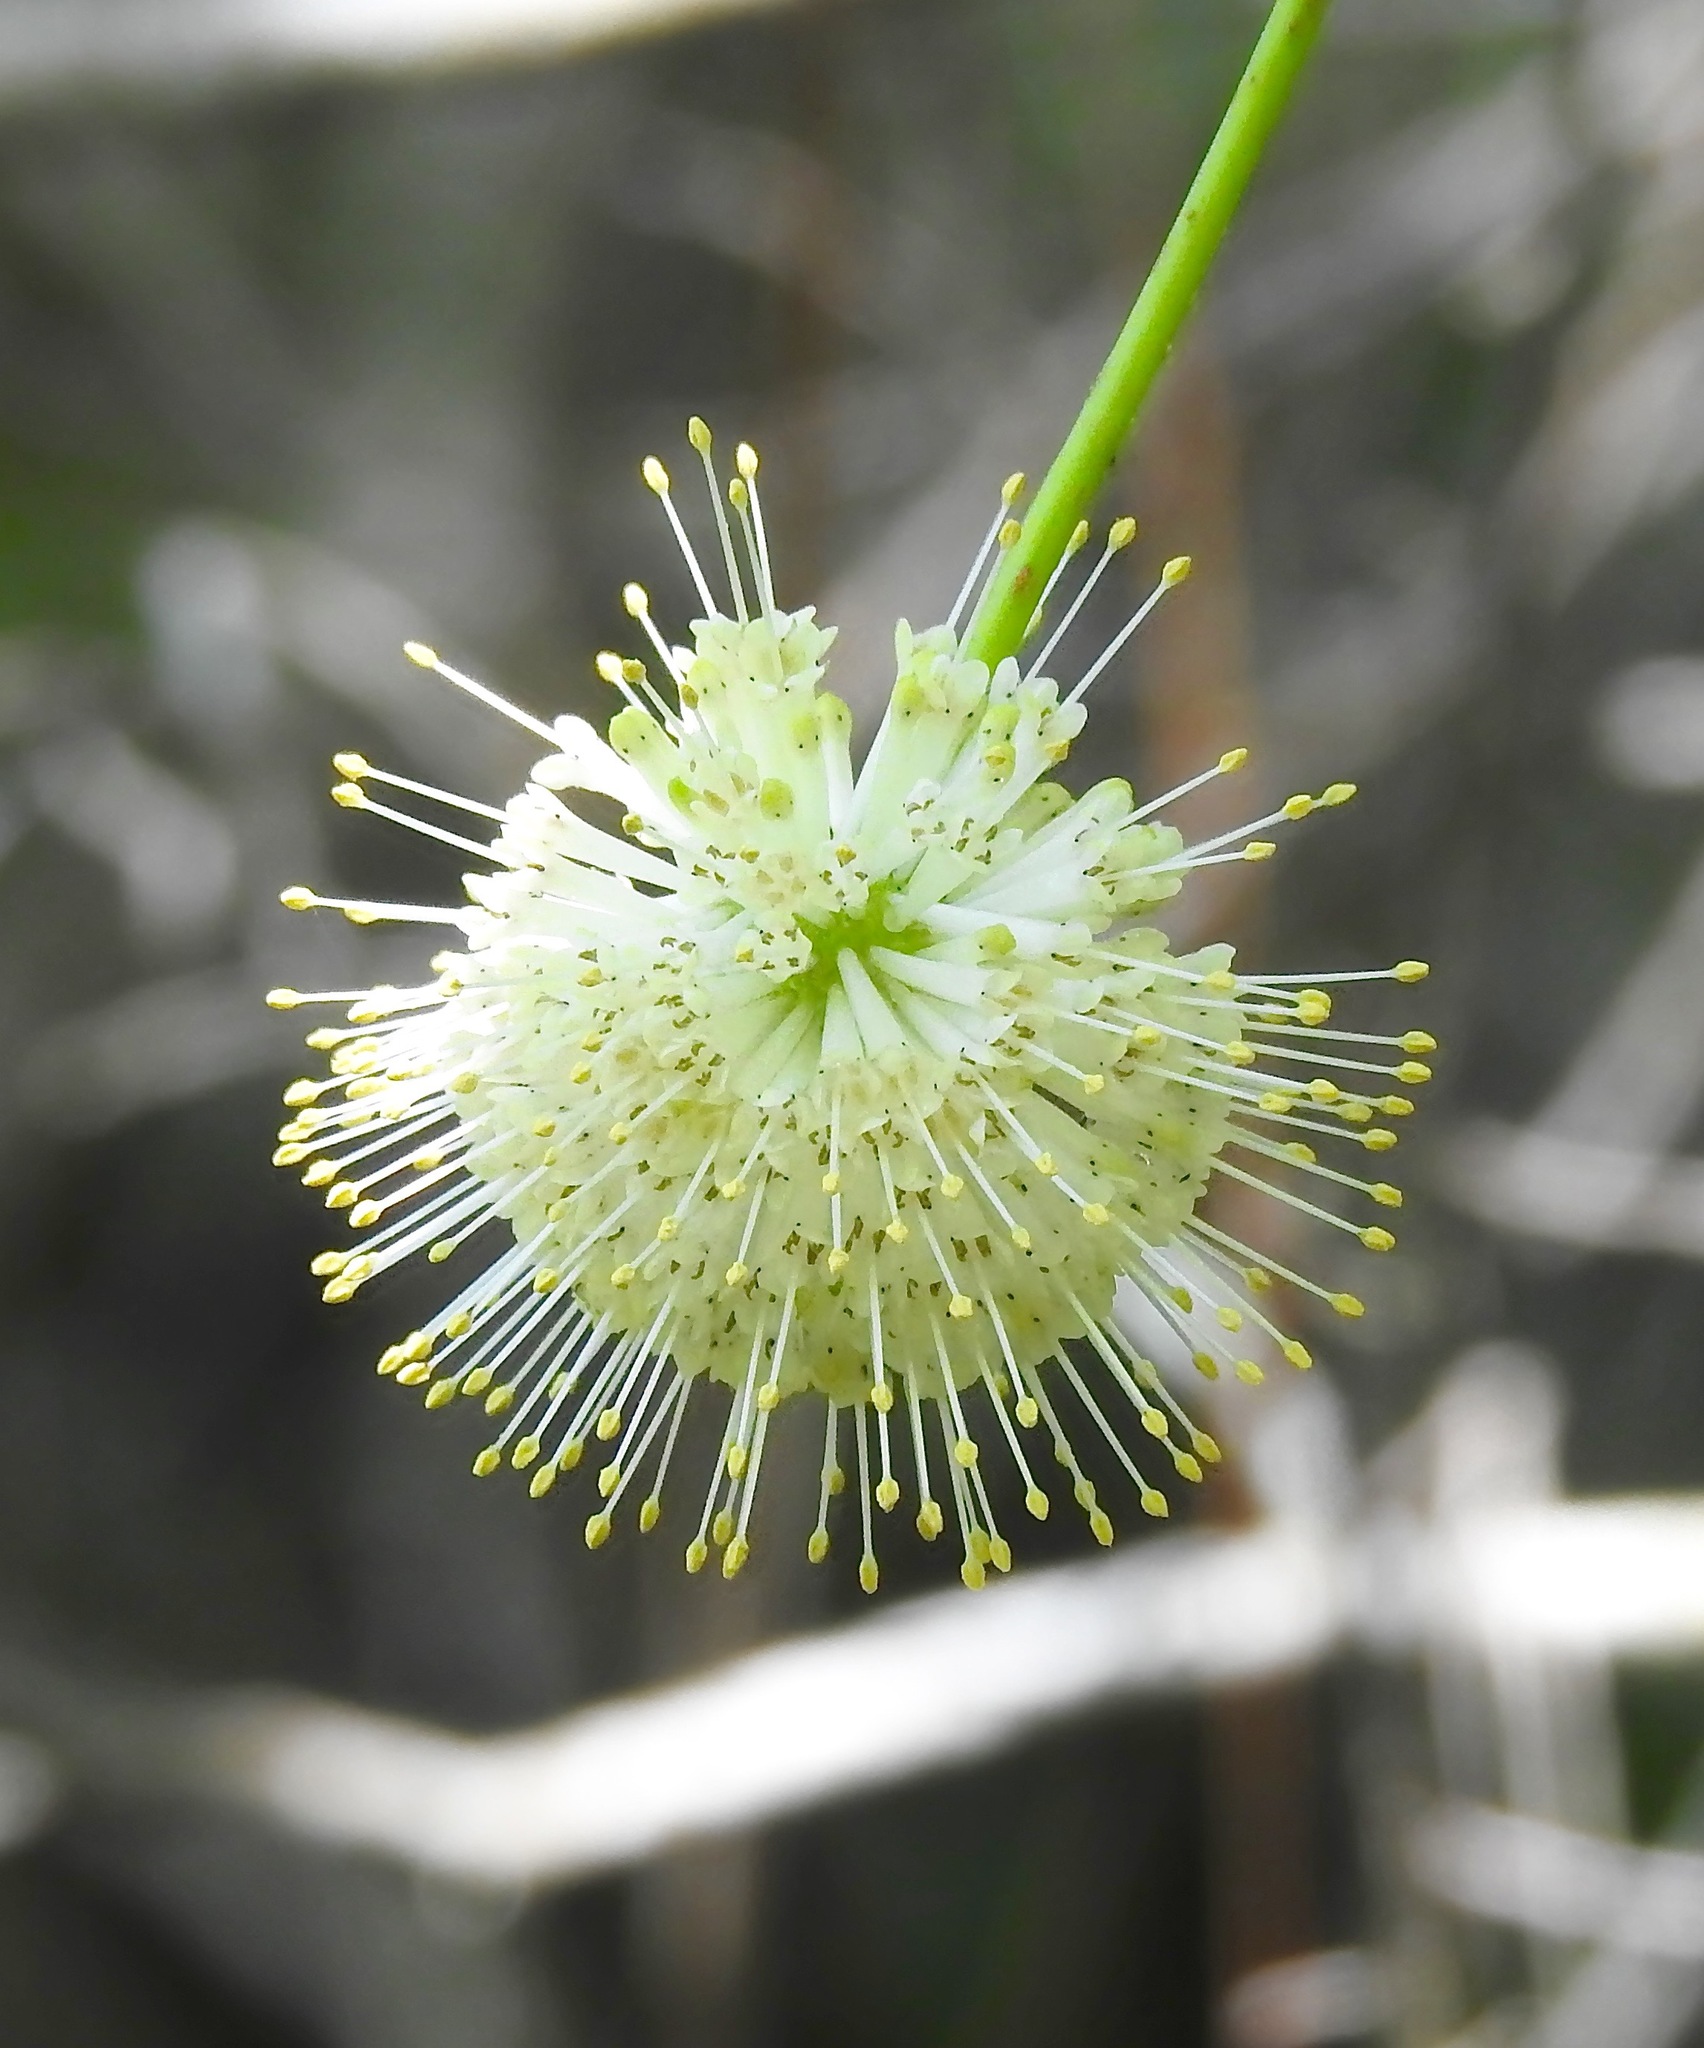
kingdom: Plantae
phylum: Tracheophyta
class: Magnoliopsida
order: Gentianales
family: Rubiaceae
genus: Cephalanthus
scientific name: Cephalanthus occidentalis
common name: Button-willow
